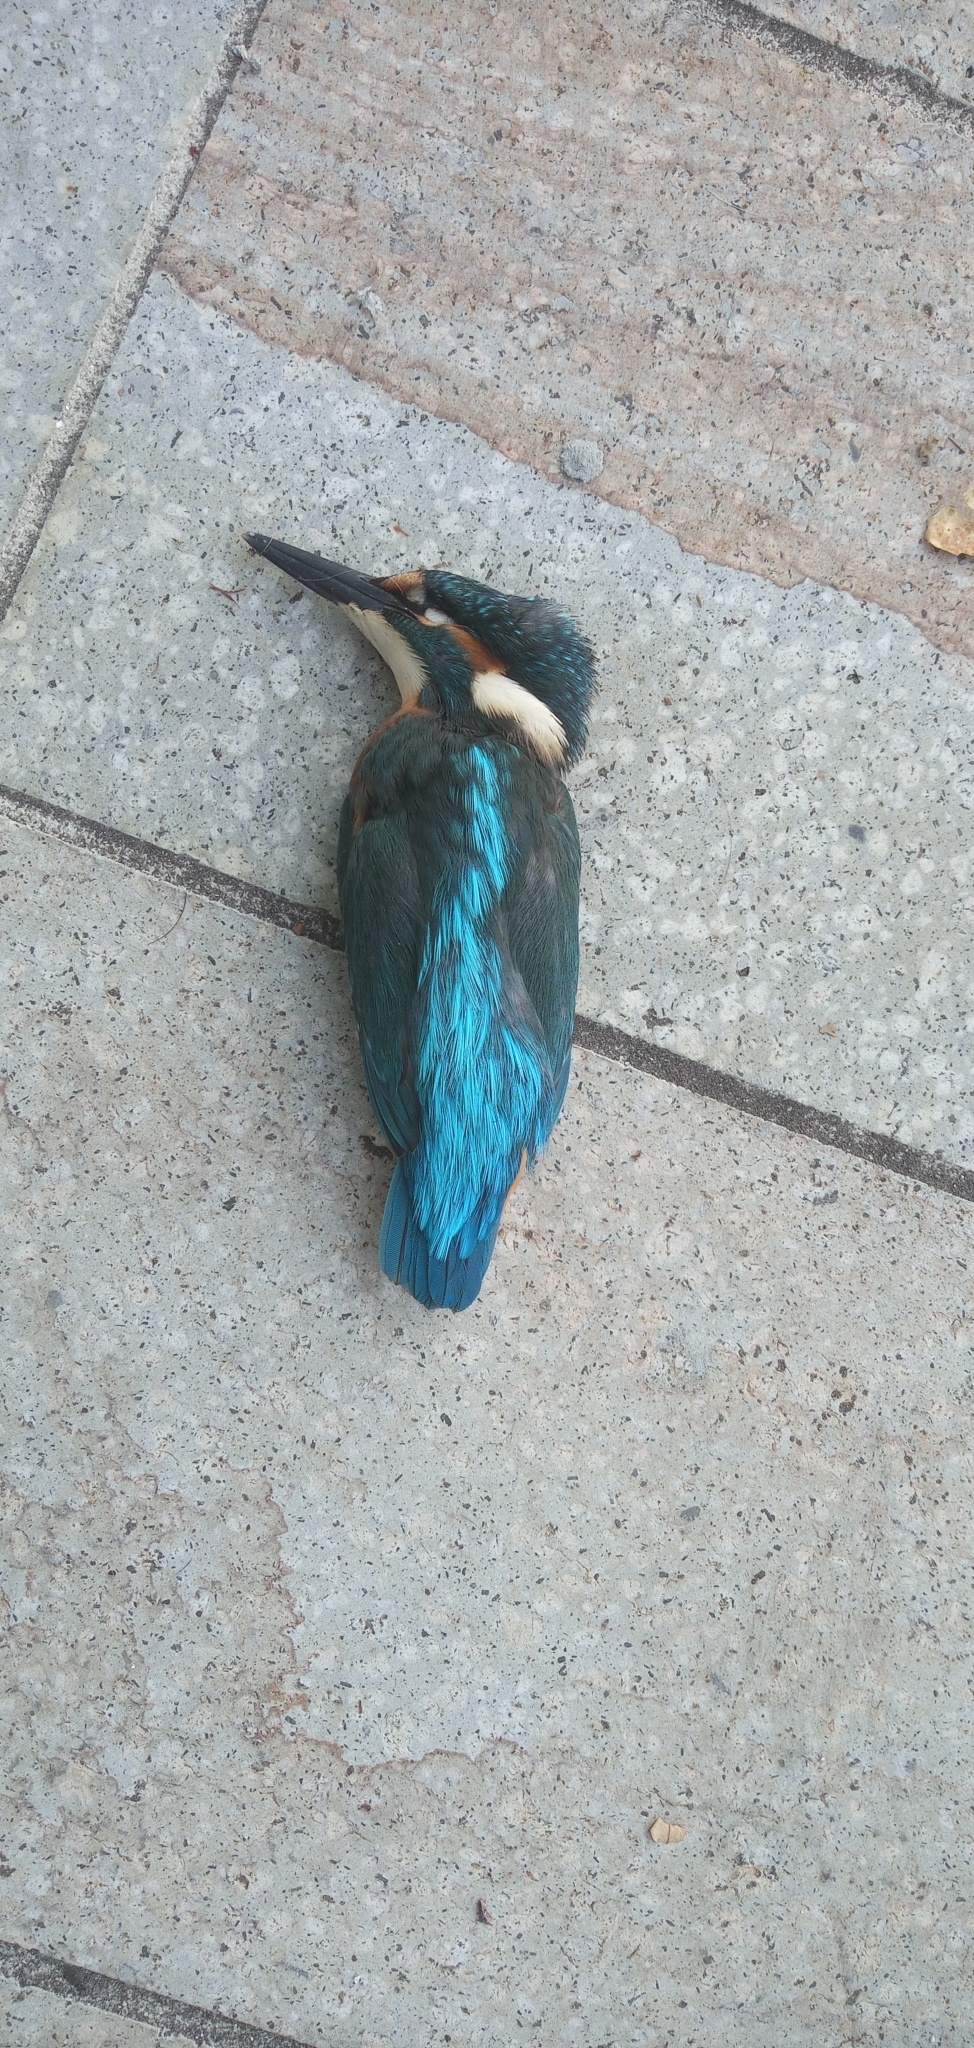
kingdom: Animalia
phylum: Chordata
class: Aves
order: Coraciiformes
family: Alcedinidae
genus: Alcedo
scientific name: Alcedo atthis
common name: Common kingfisher
